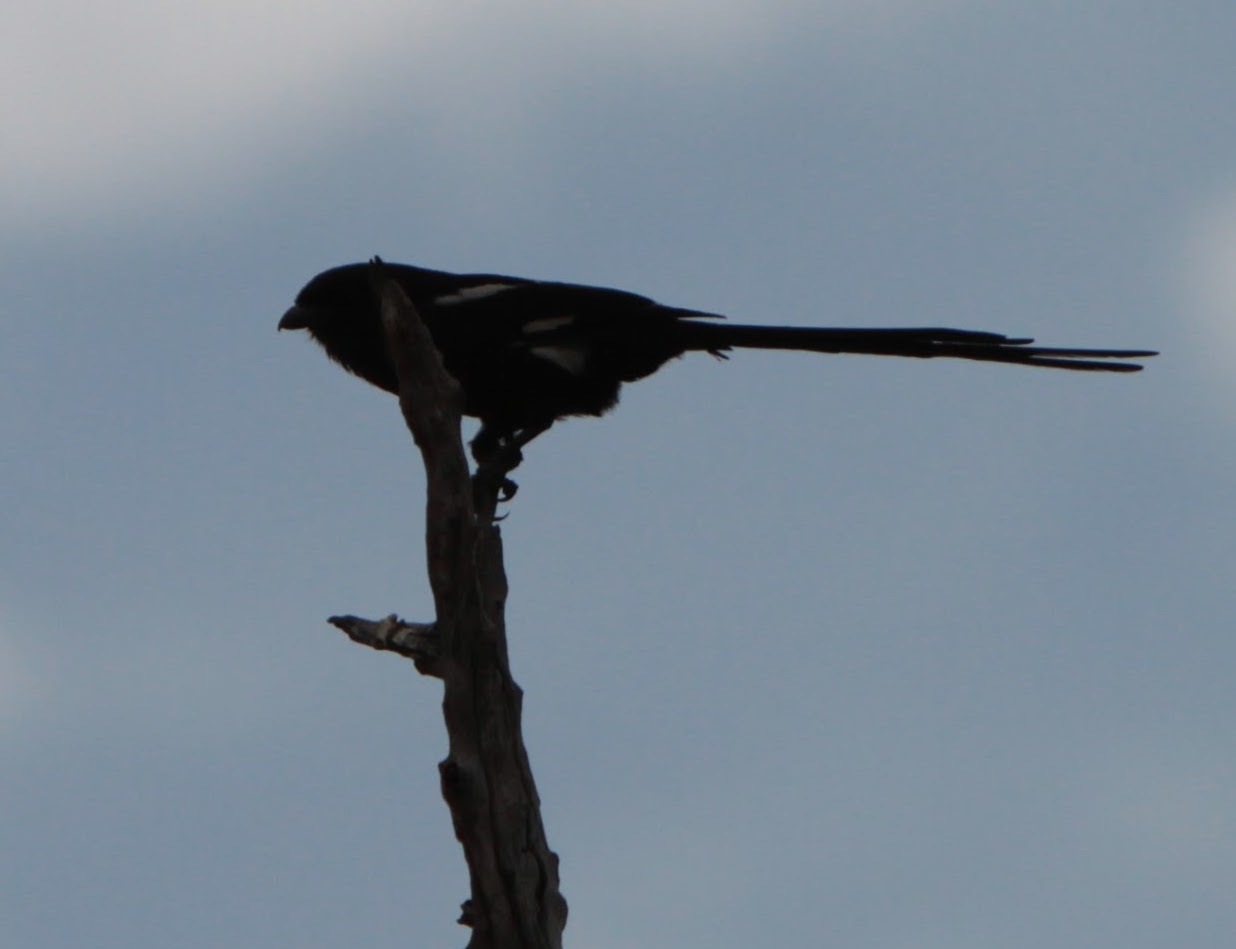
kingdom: Animalia
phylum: Chordata
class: Aves
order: Passeriformes
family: Laniidae
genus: Urolestes
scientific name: Urolestes melanoleucus
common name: Magpie shrike
